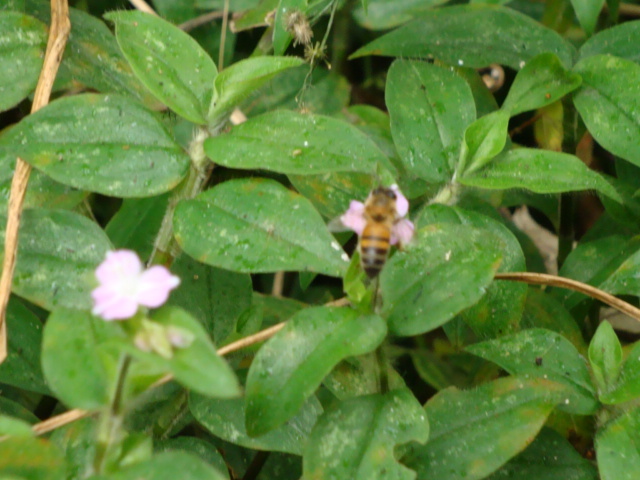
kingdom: Animalia
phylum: Arthropoda
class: Insecta
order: Hymenoptera
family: Apidae
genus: Apis
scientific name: Apis mellifera
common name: Honey bee
